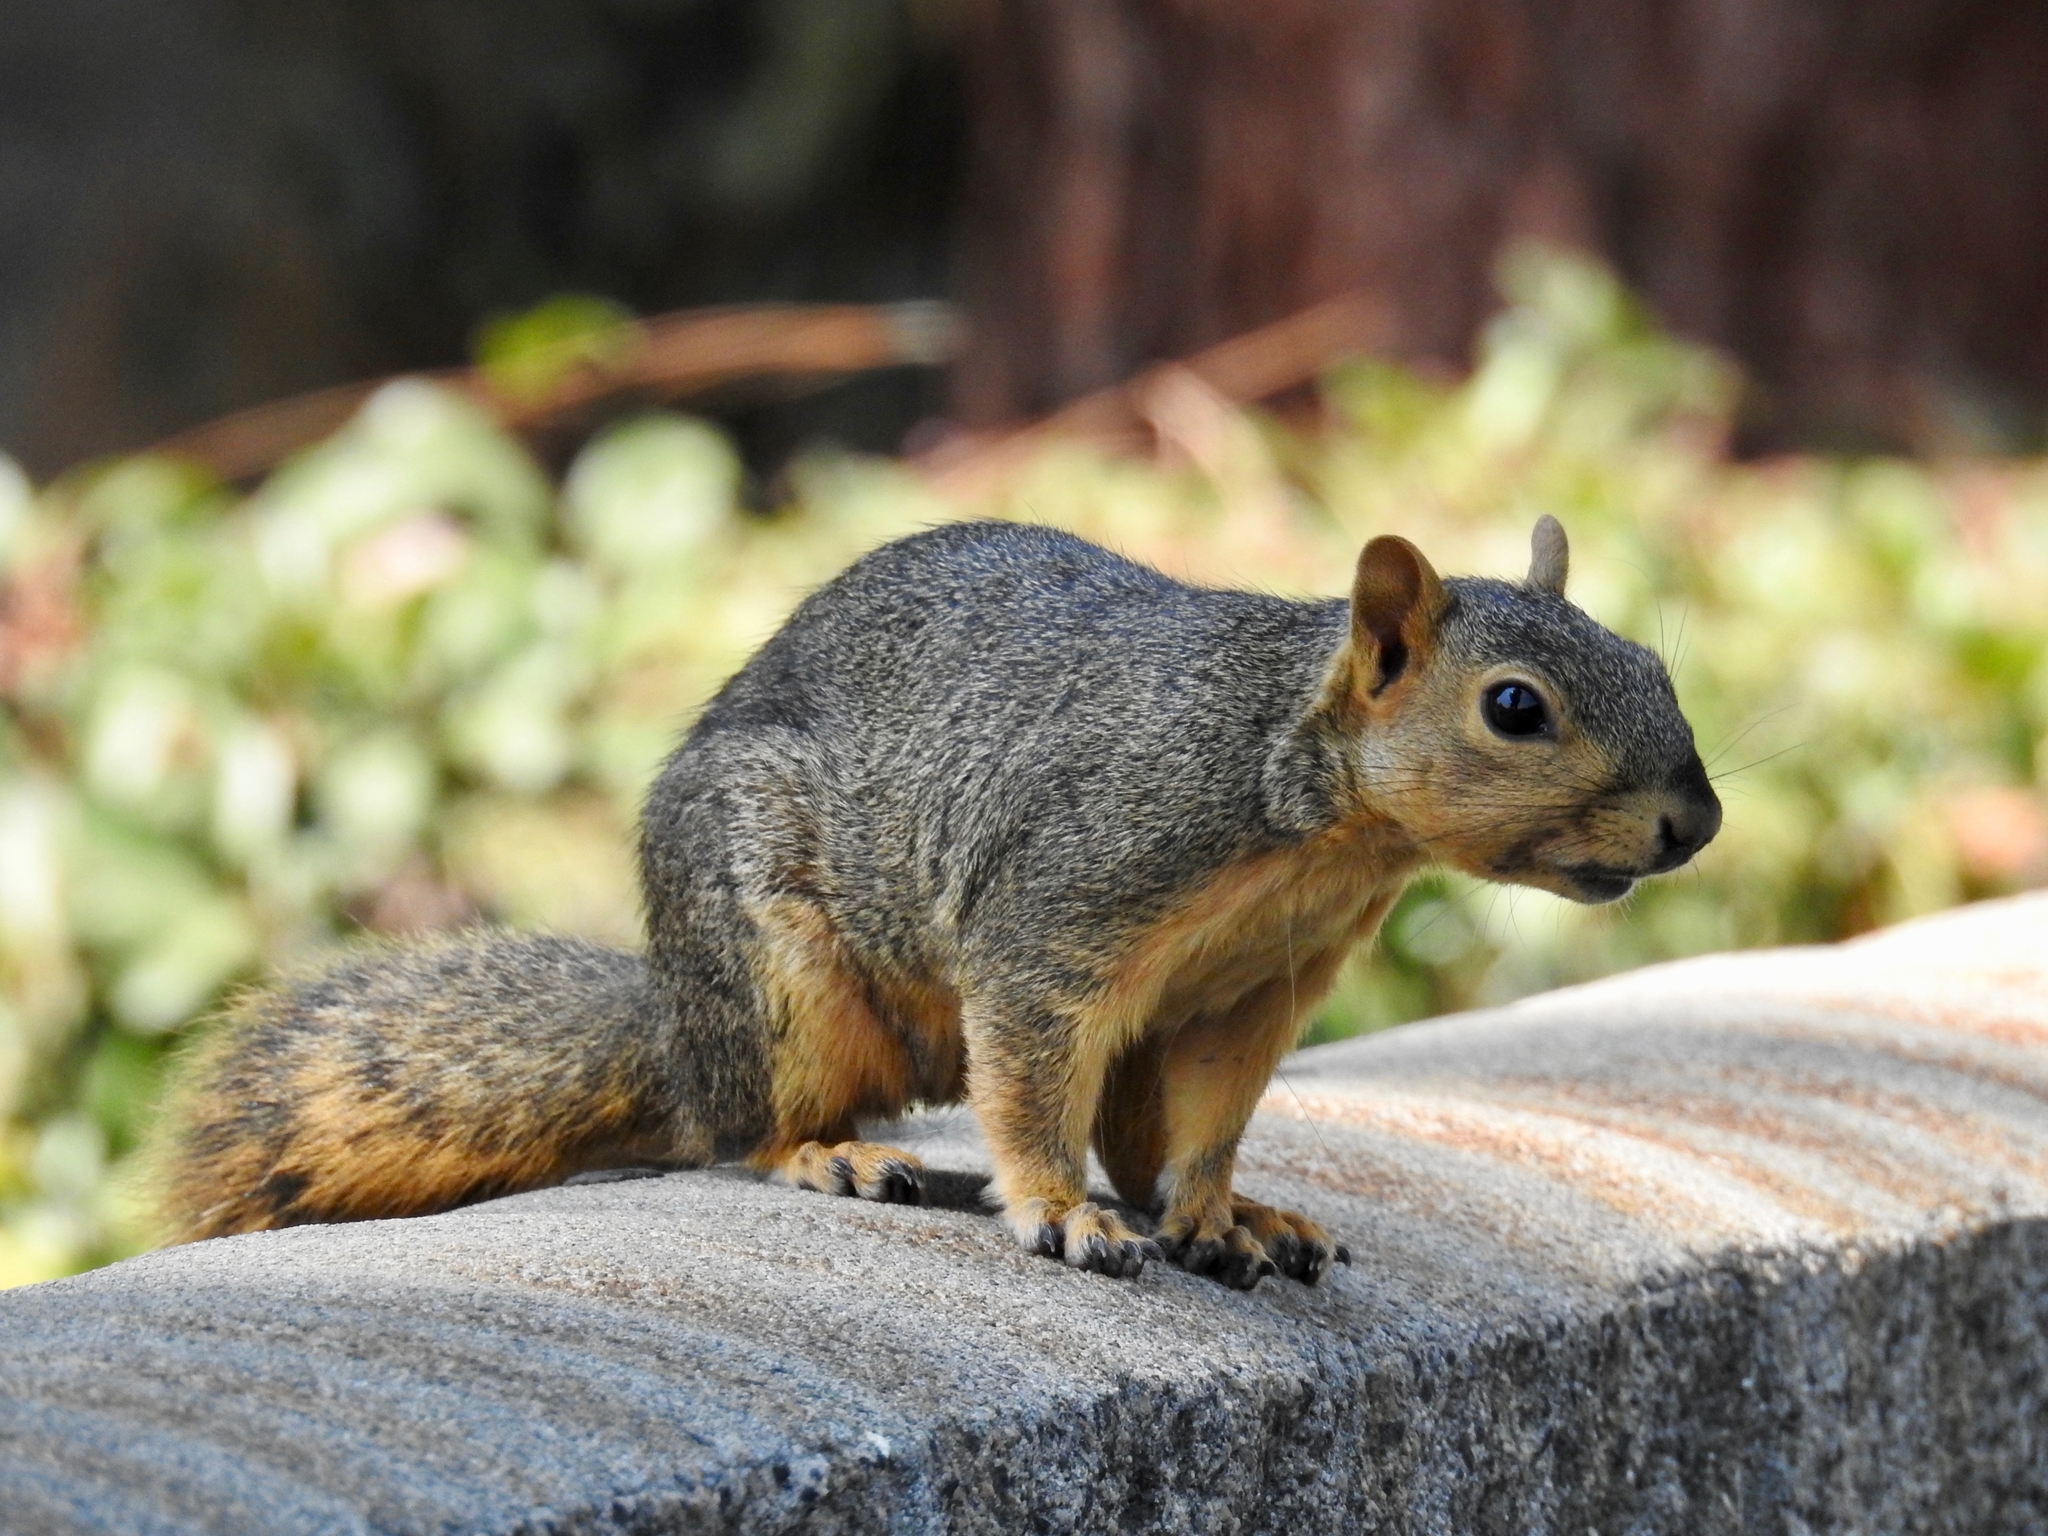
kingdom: Animalia
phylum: Chordata
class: Mammalia
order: Rodentia
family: Sciuridae
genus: Sciurus
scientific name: Sciurus niger
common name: Fox squirrel
